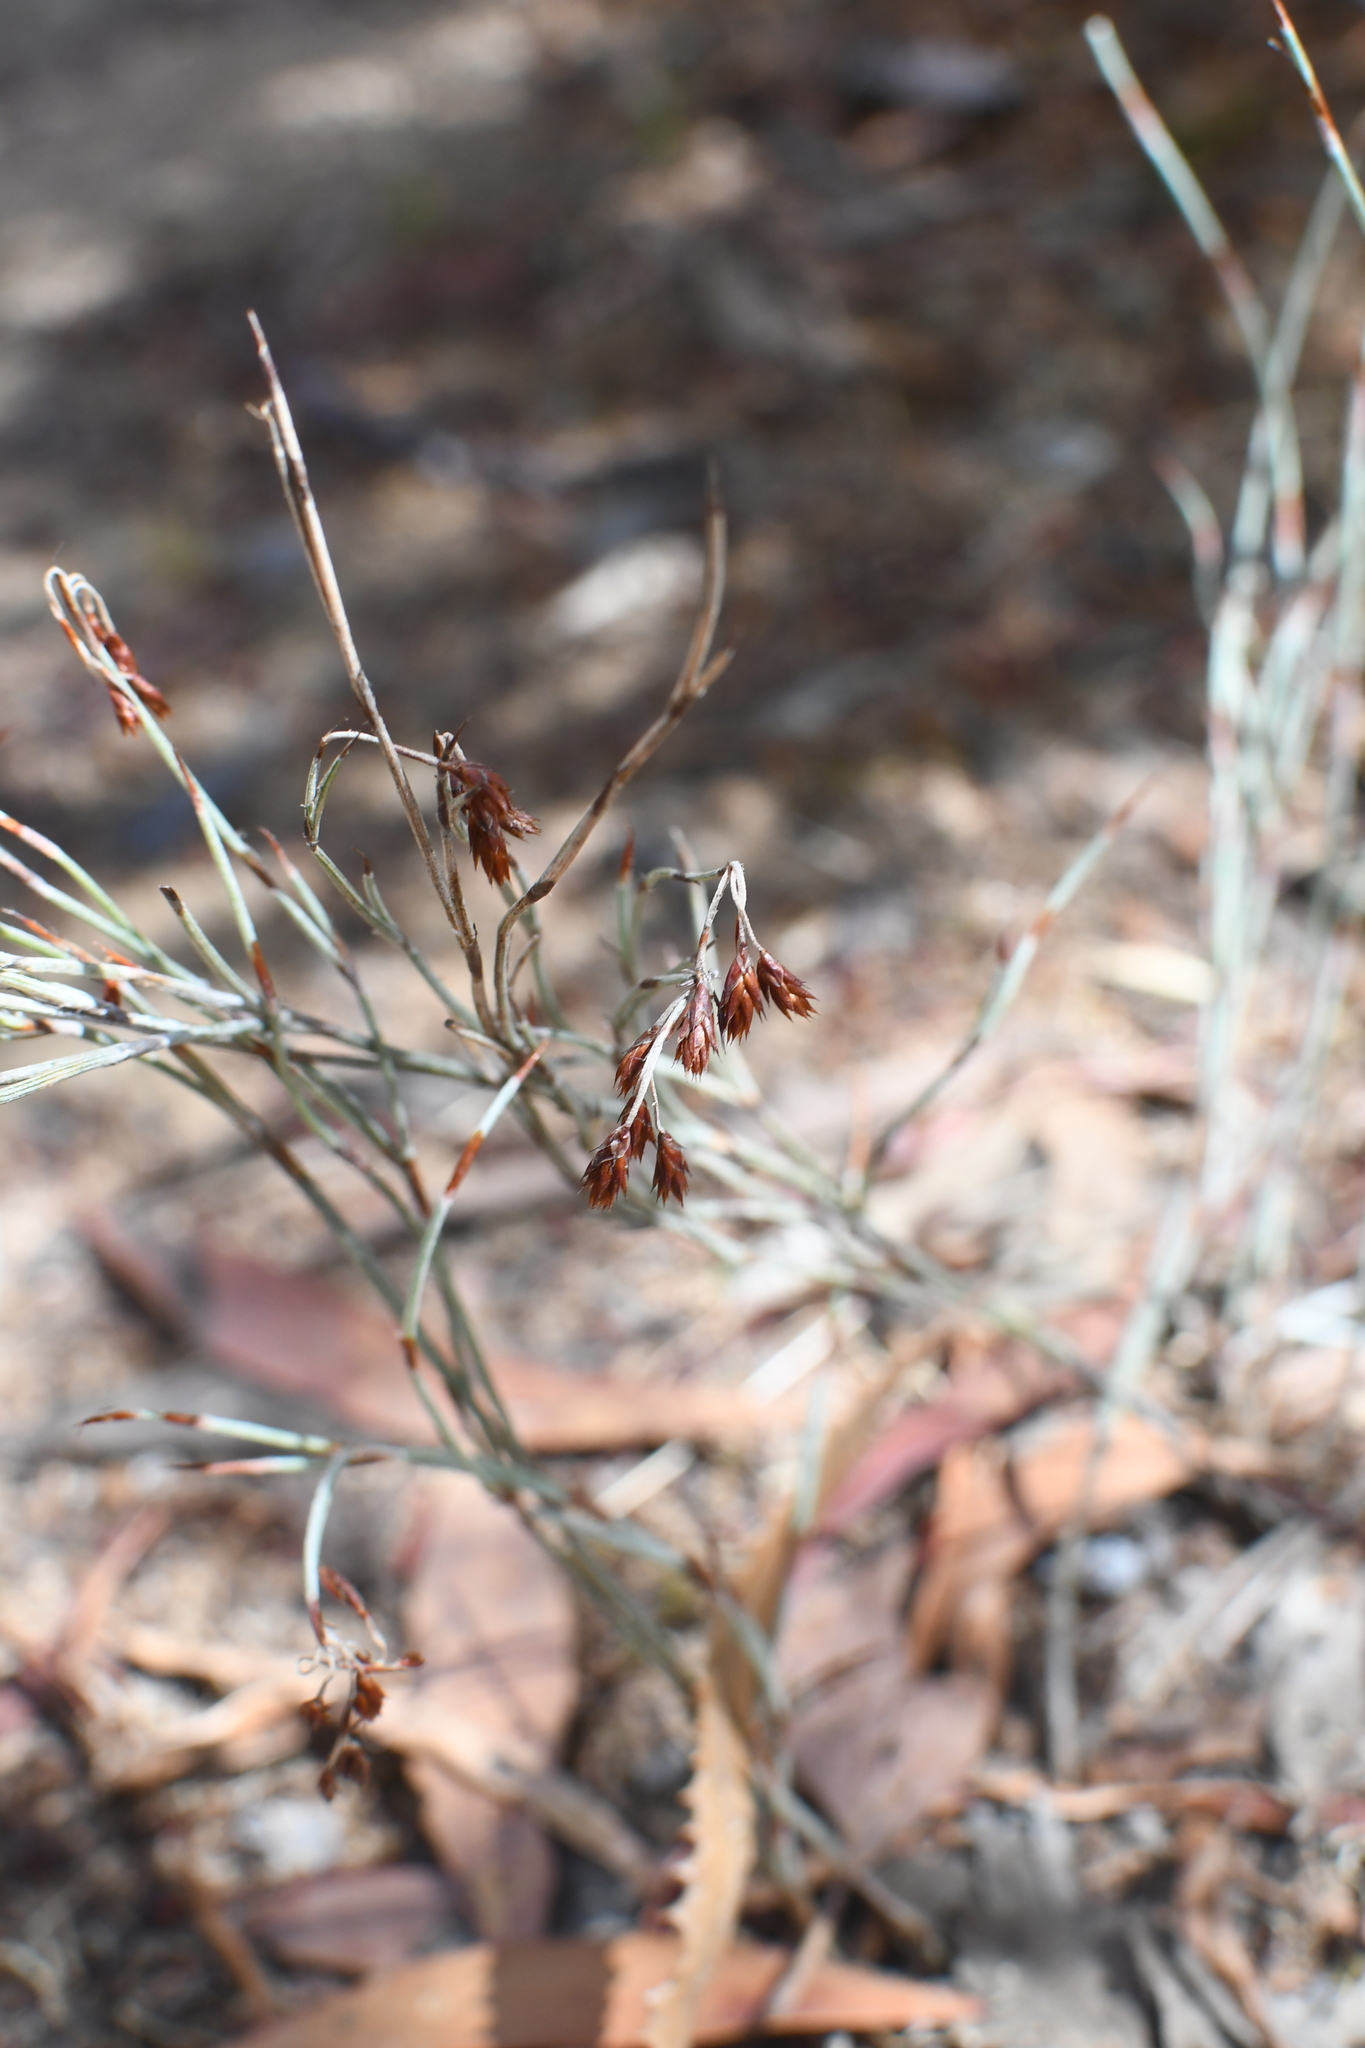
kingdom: Plantae
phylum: Tracheophyta
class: Liliopsida
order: Poales
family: Restionaceae
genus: Hypolaena
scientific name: Hypolaena fastigiata
